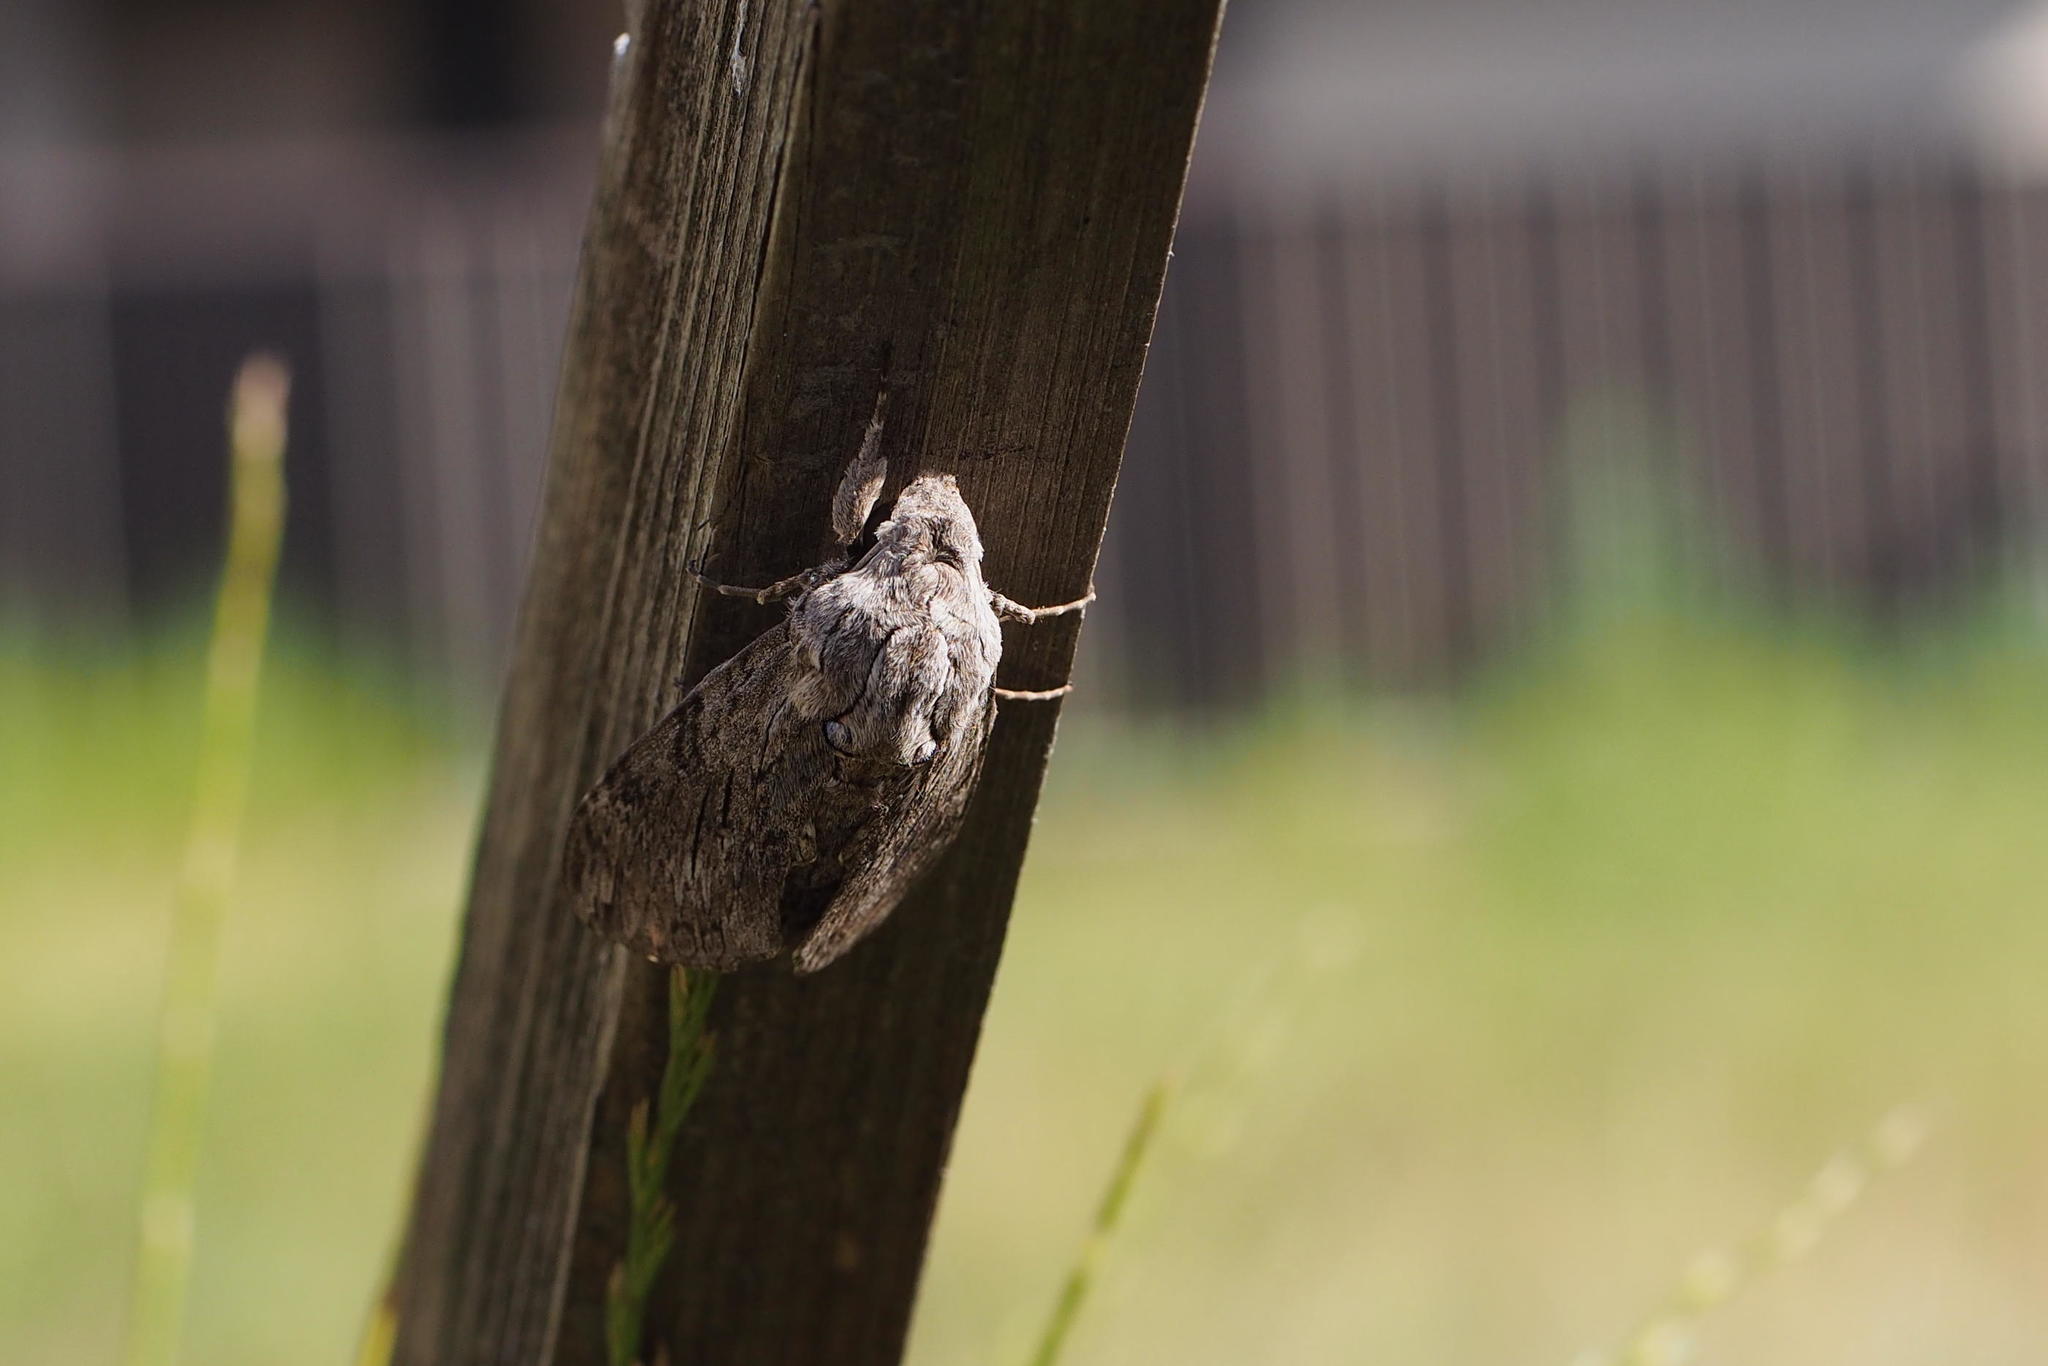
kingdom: Animalia
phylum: Arthropoda
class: Insecta
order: Lepidoptera
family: Sphingidae
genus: Agrius
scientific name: Agrius convolvuli
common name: Convolvulus hawkmoth
